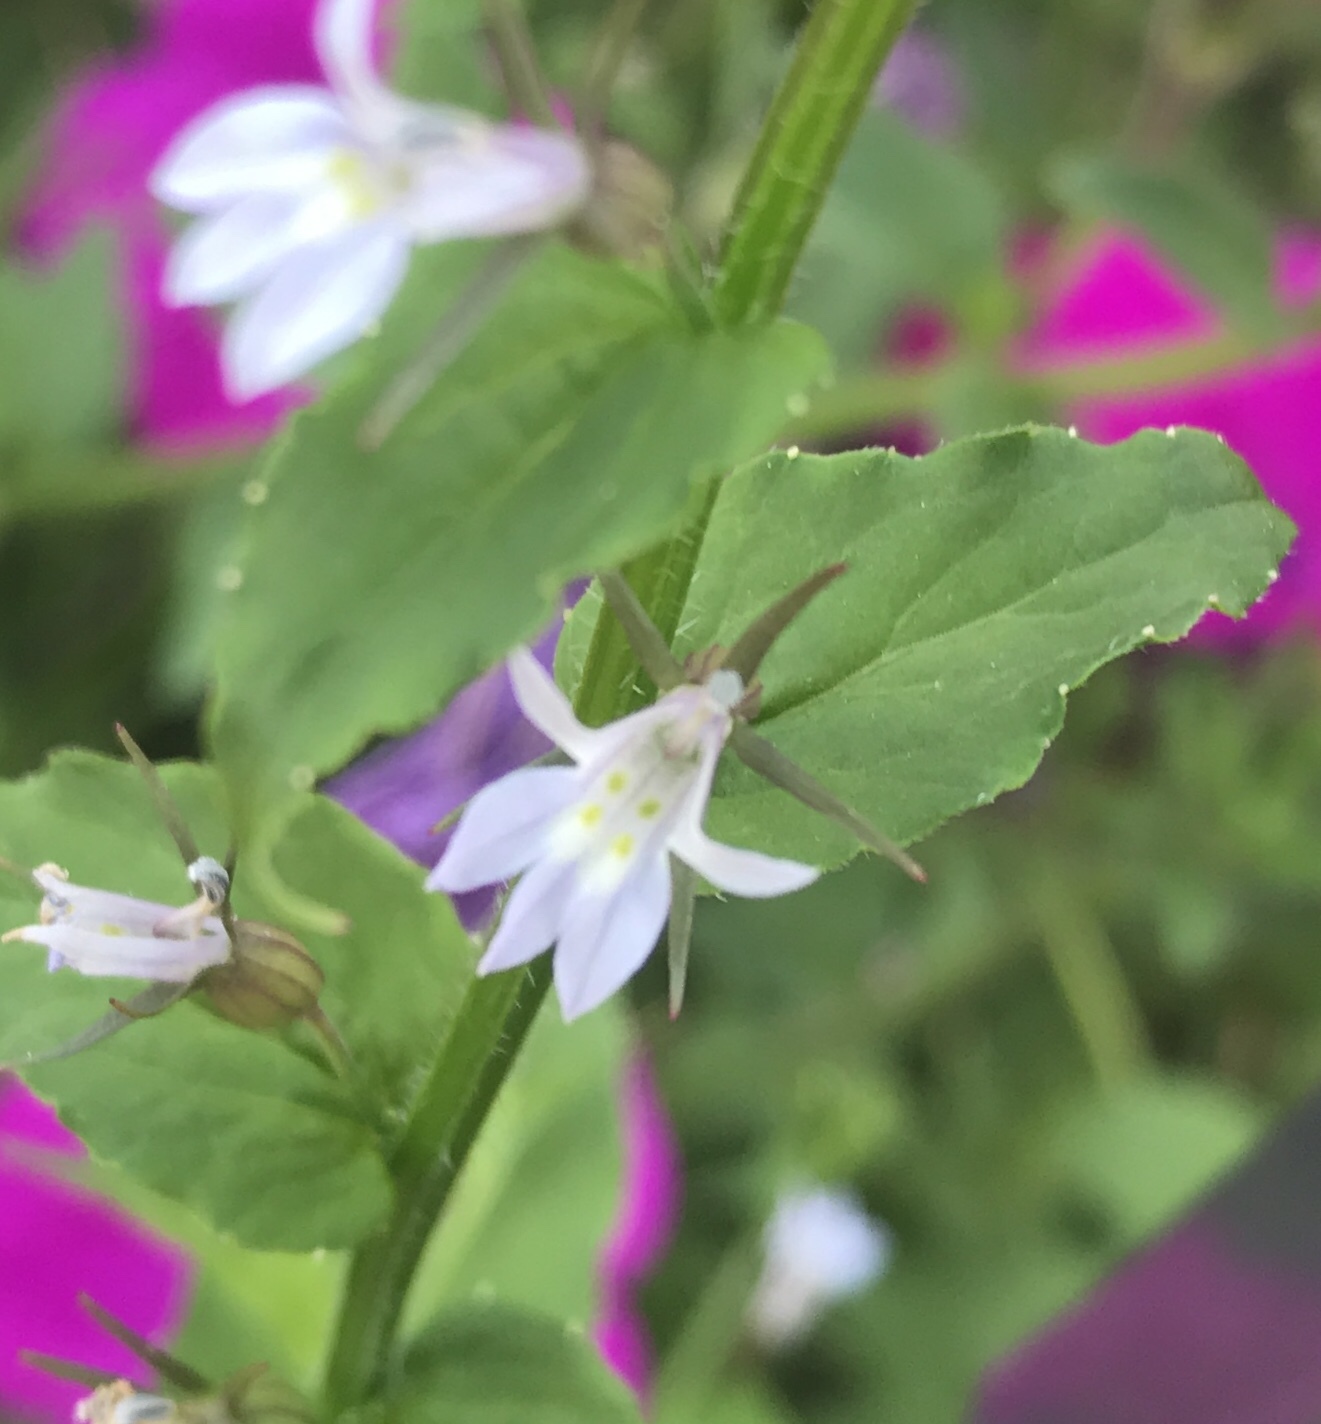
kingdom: Plantae
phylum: Tracheophyta
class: Magnoliopsida
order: Asterales
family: Campanulaceae
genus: Lobelia
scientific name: Lobelia inflata
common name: Indian tobacco
